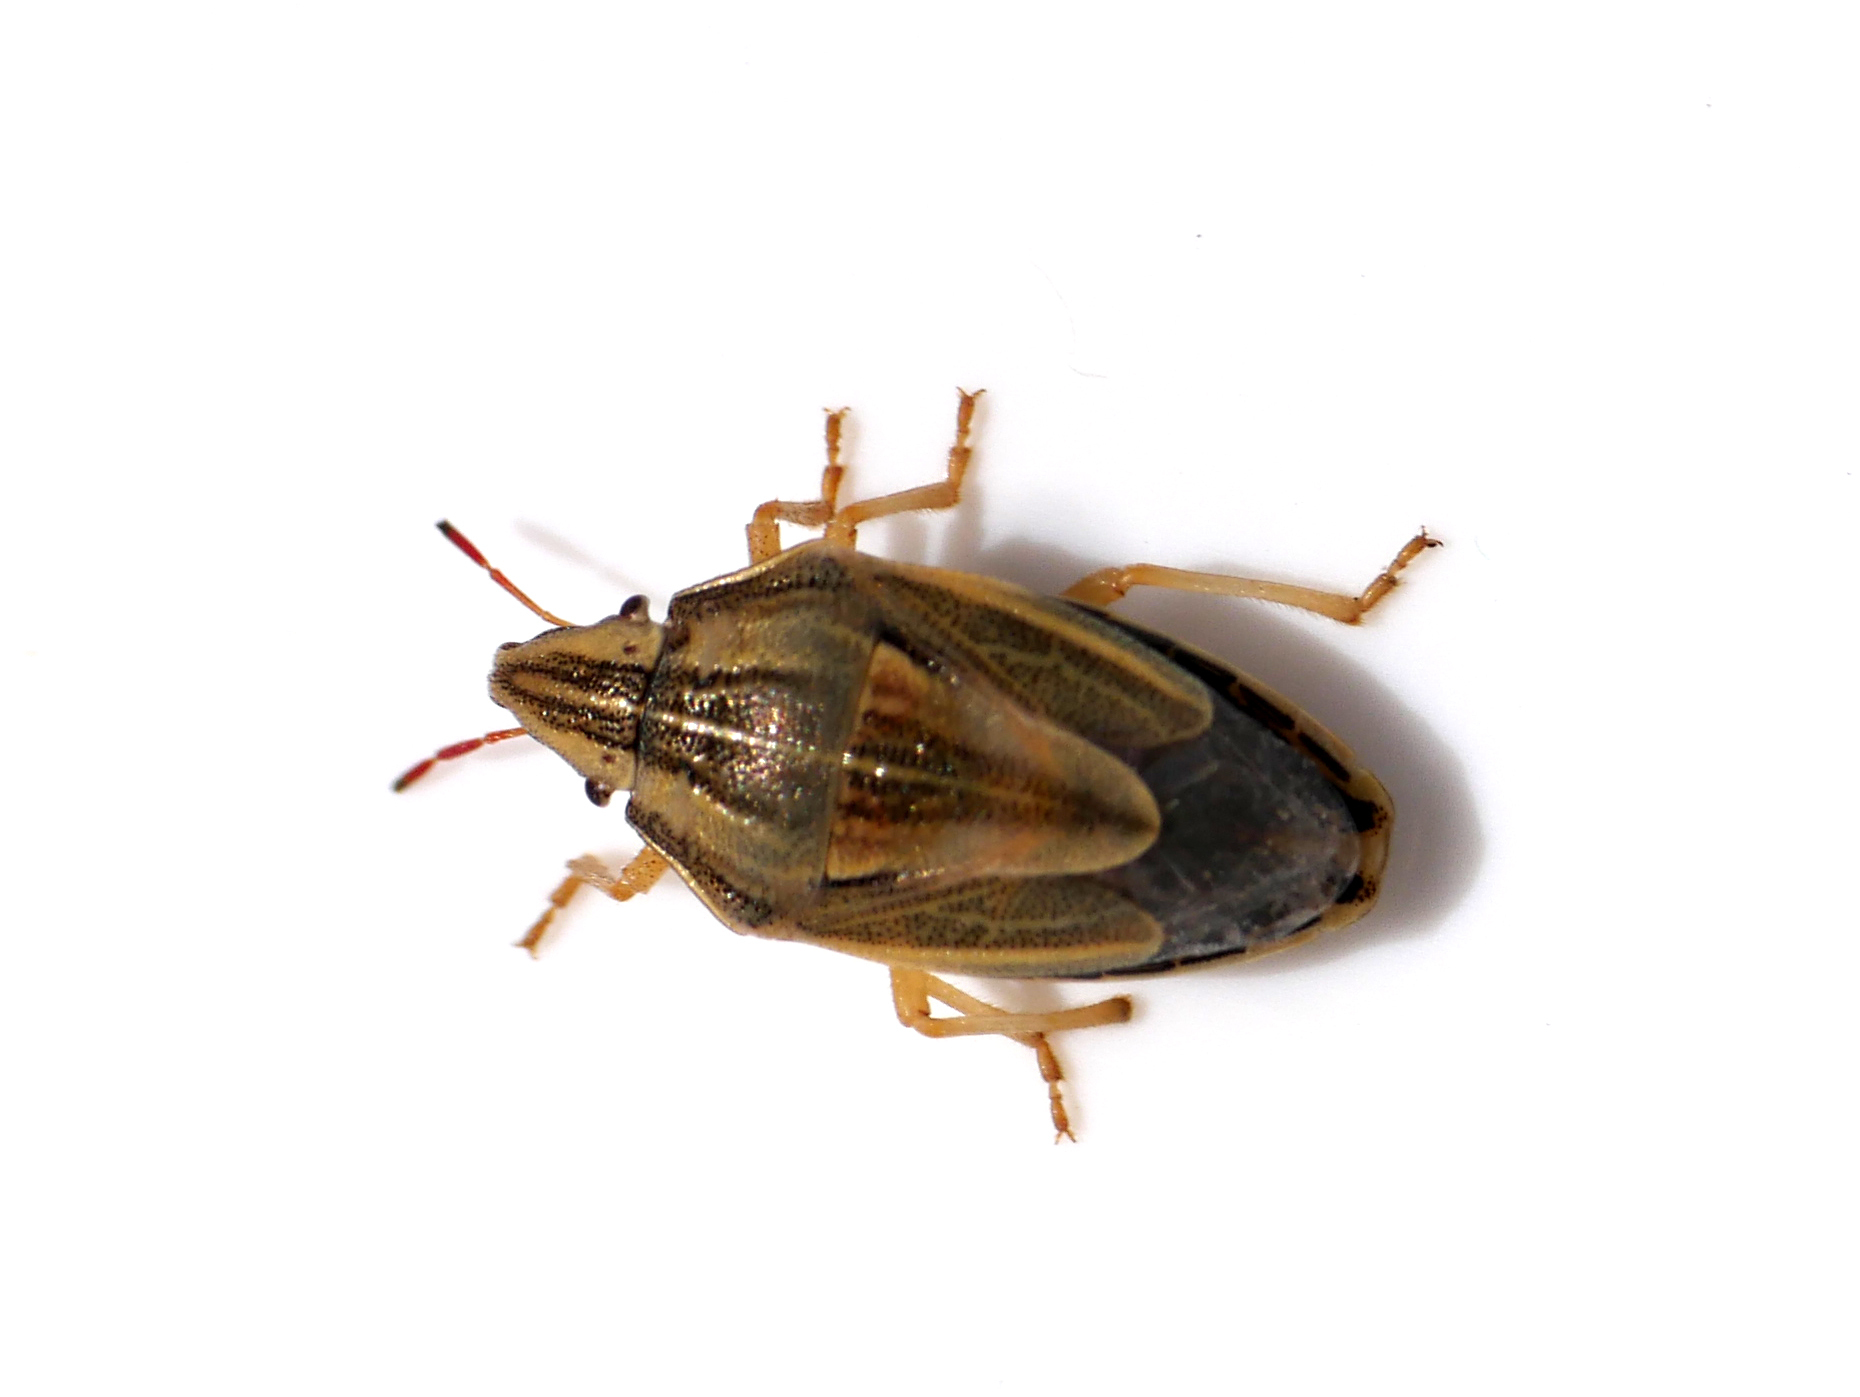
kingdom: Animalia
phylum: Arthropoda
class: Insecta
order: Hemiptera
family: Pentatomidae
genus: Aelia
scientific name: Aelia acuminata
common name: Bishop's mitre
